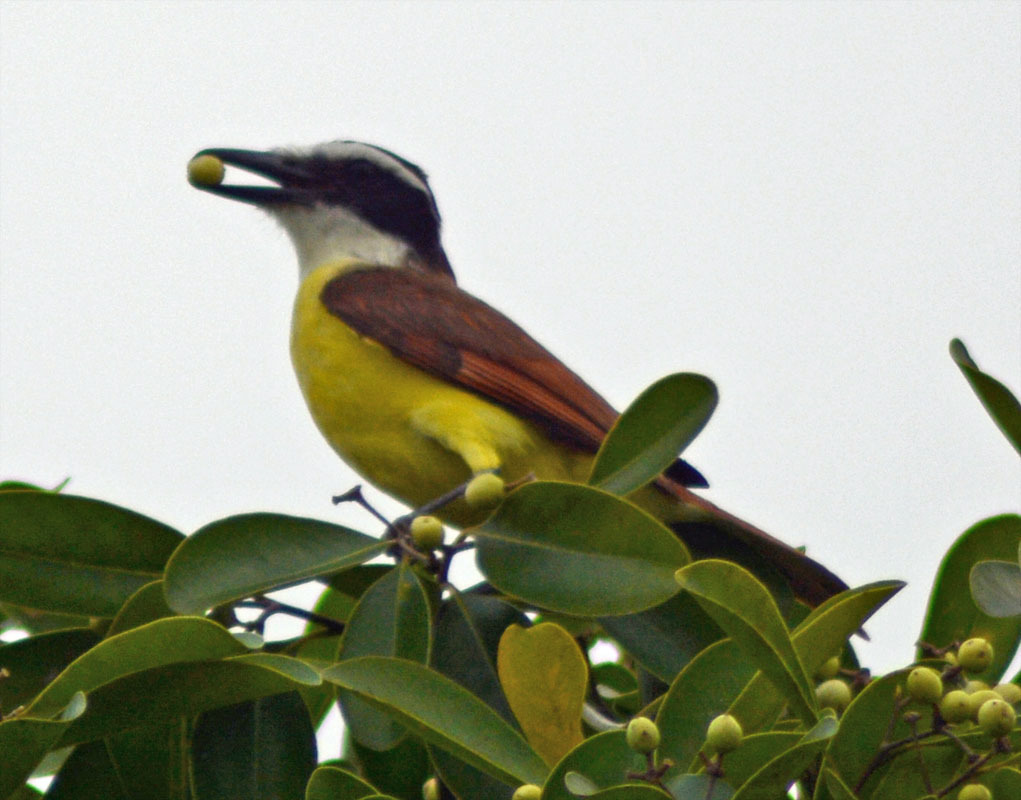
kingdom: Animalia
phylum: Chordata
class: Aves
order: Passeriformes
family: Tyrannidae
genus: Pitangus
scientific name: Pitangus sulphuratus
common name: Great kiskadee
